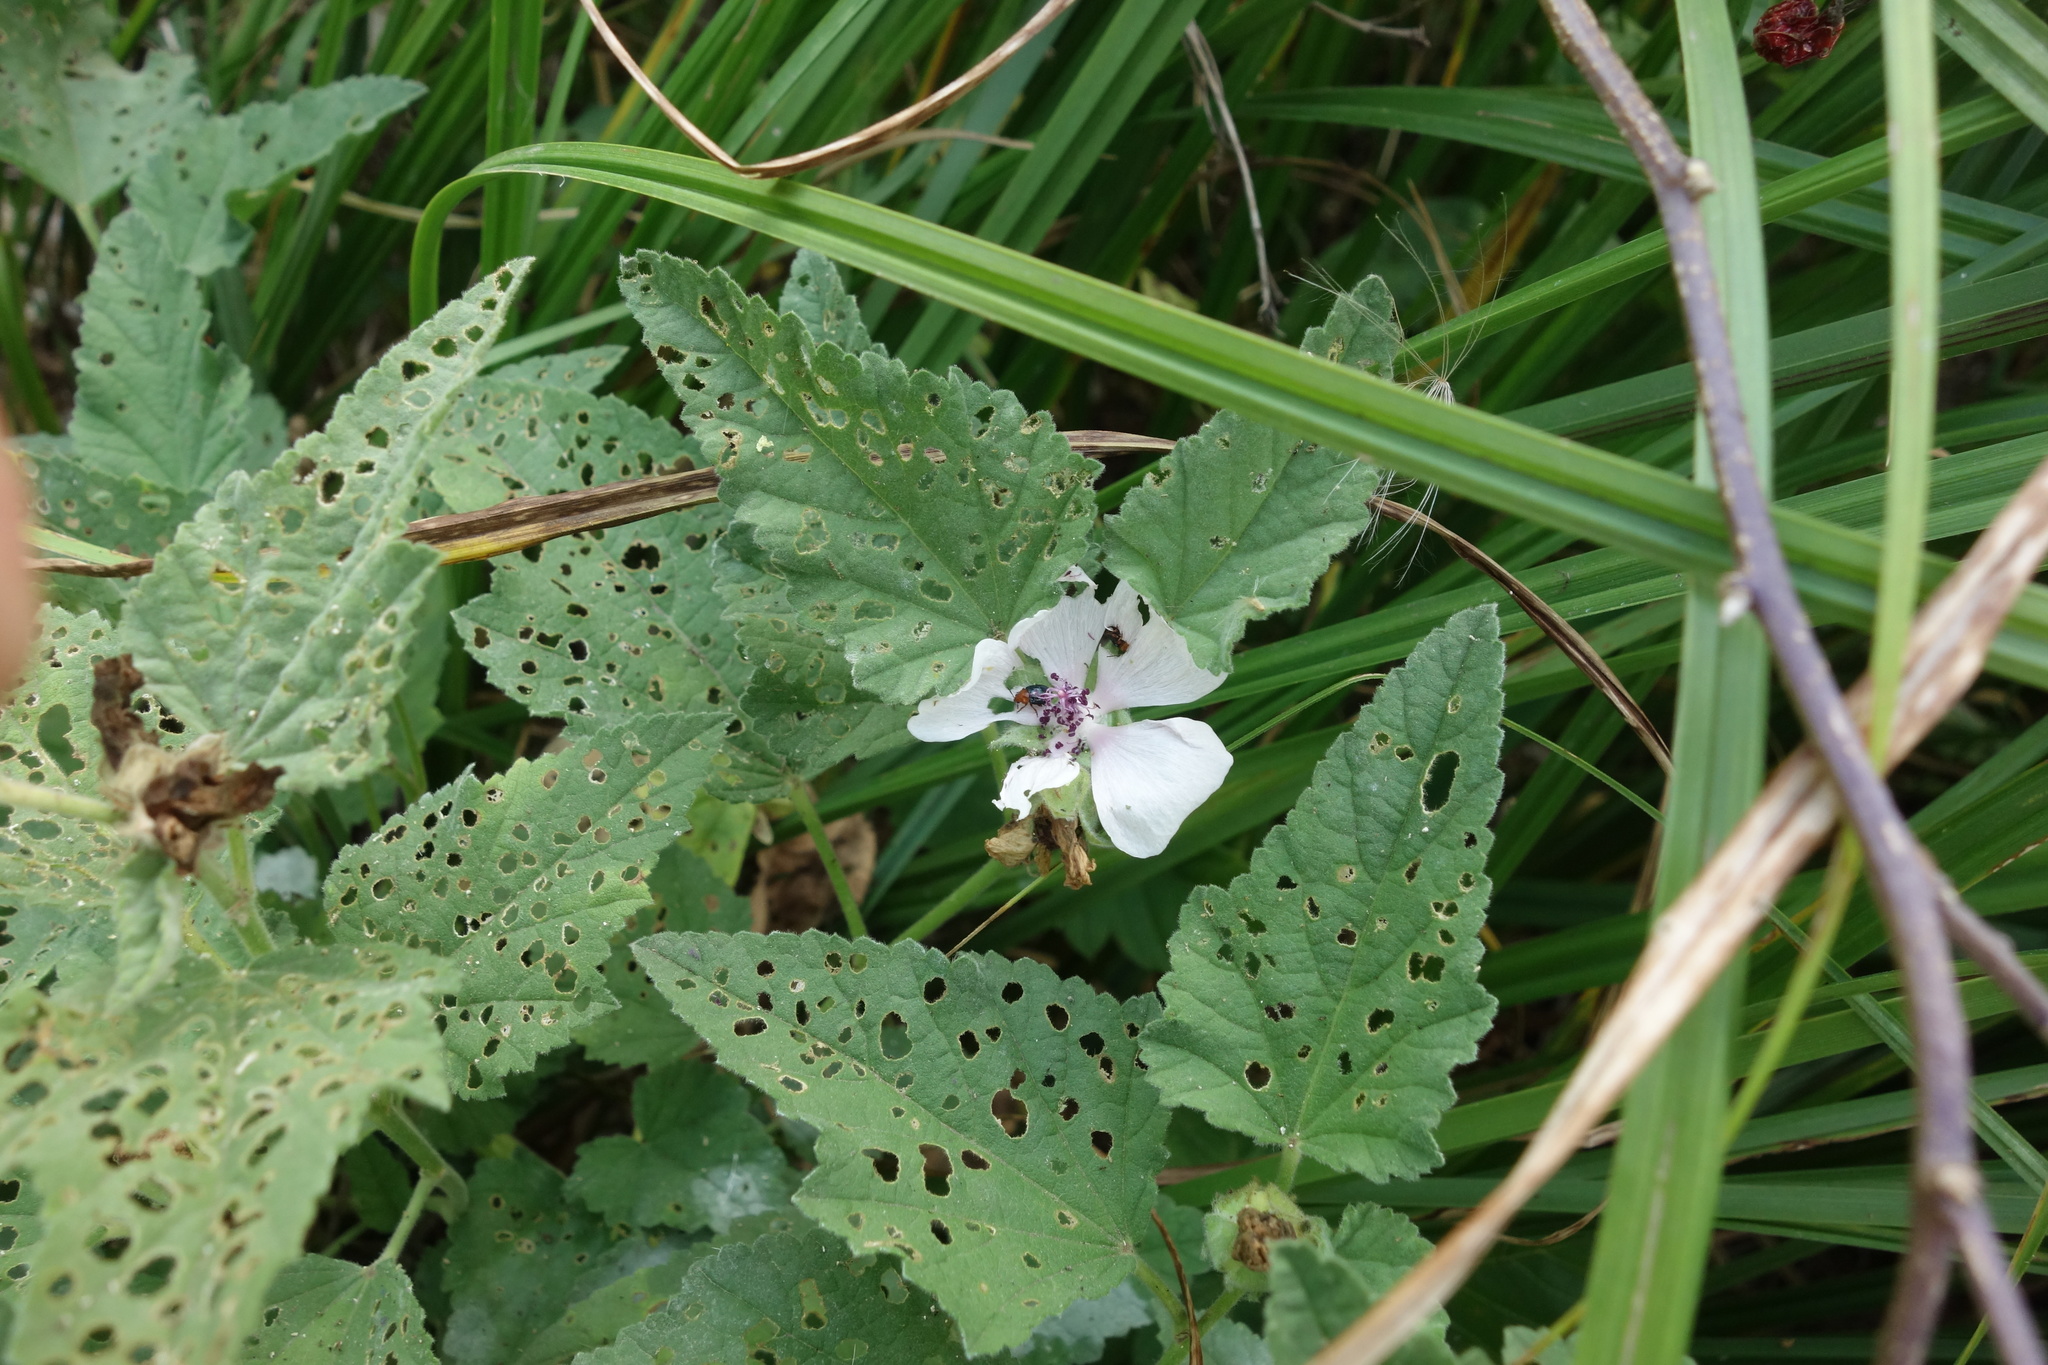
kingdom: Plantae
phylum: Tracheophyta
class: Magnoliopsida
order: Malvales
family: Malvaceae
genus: Althaea
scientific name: Althaea officinalis
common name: Marsh-mallow
